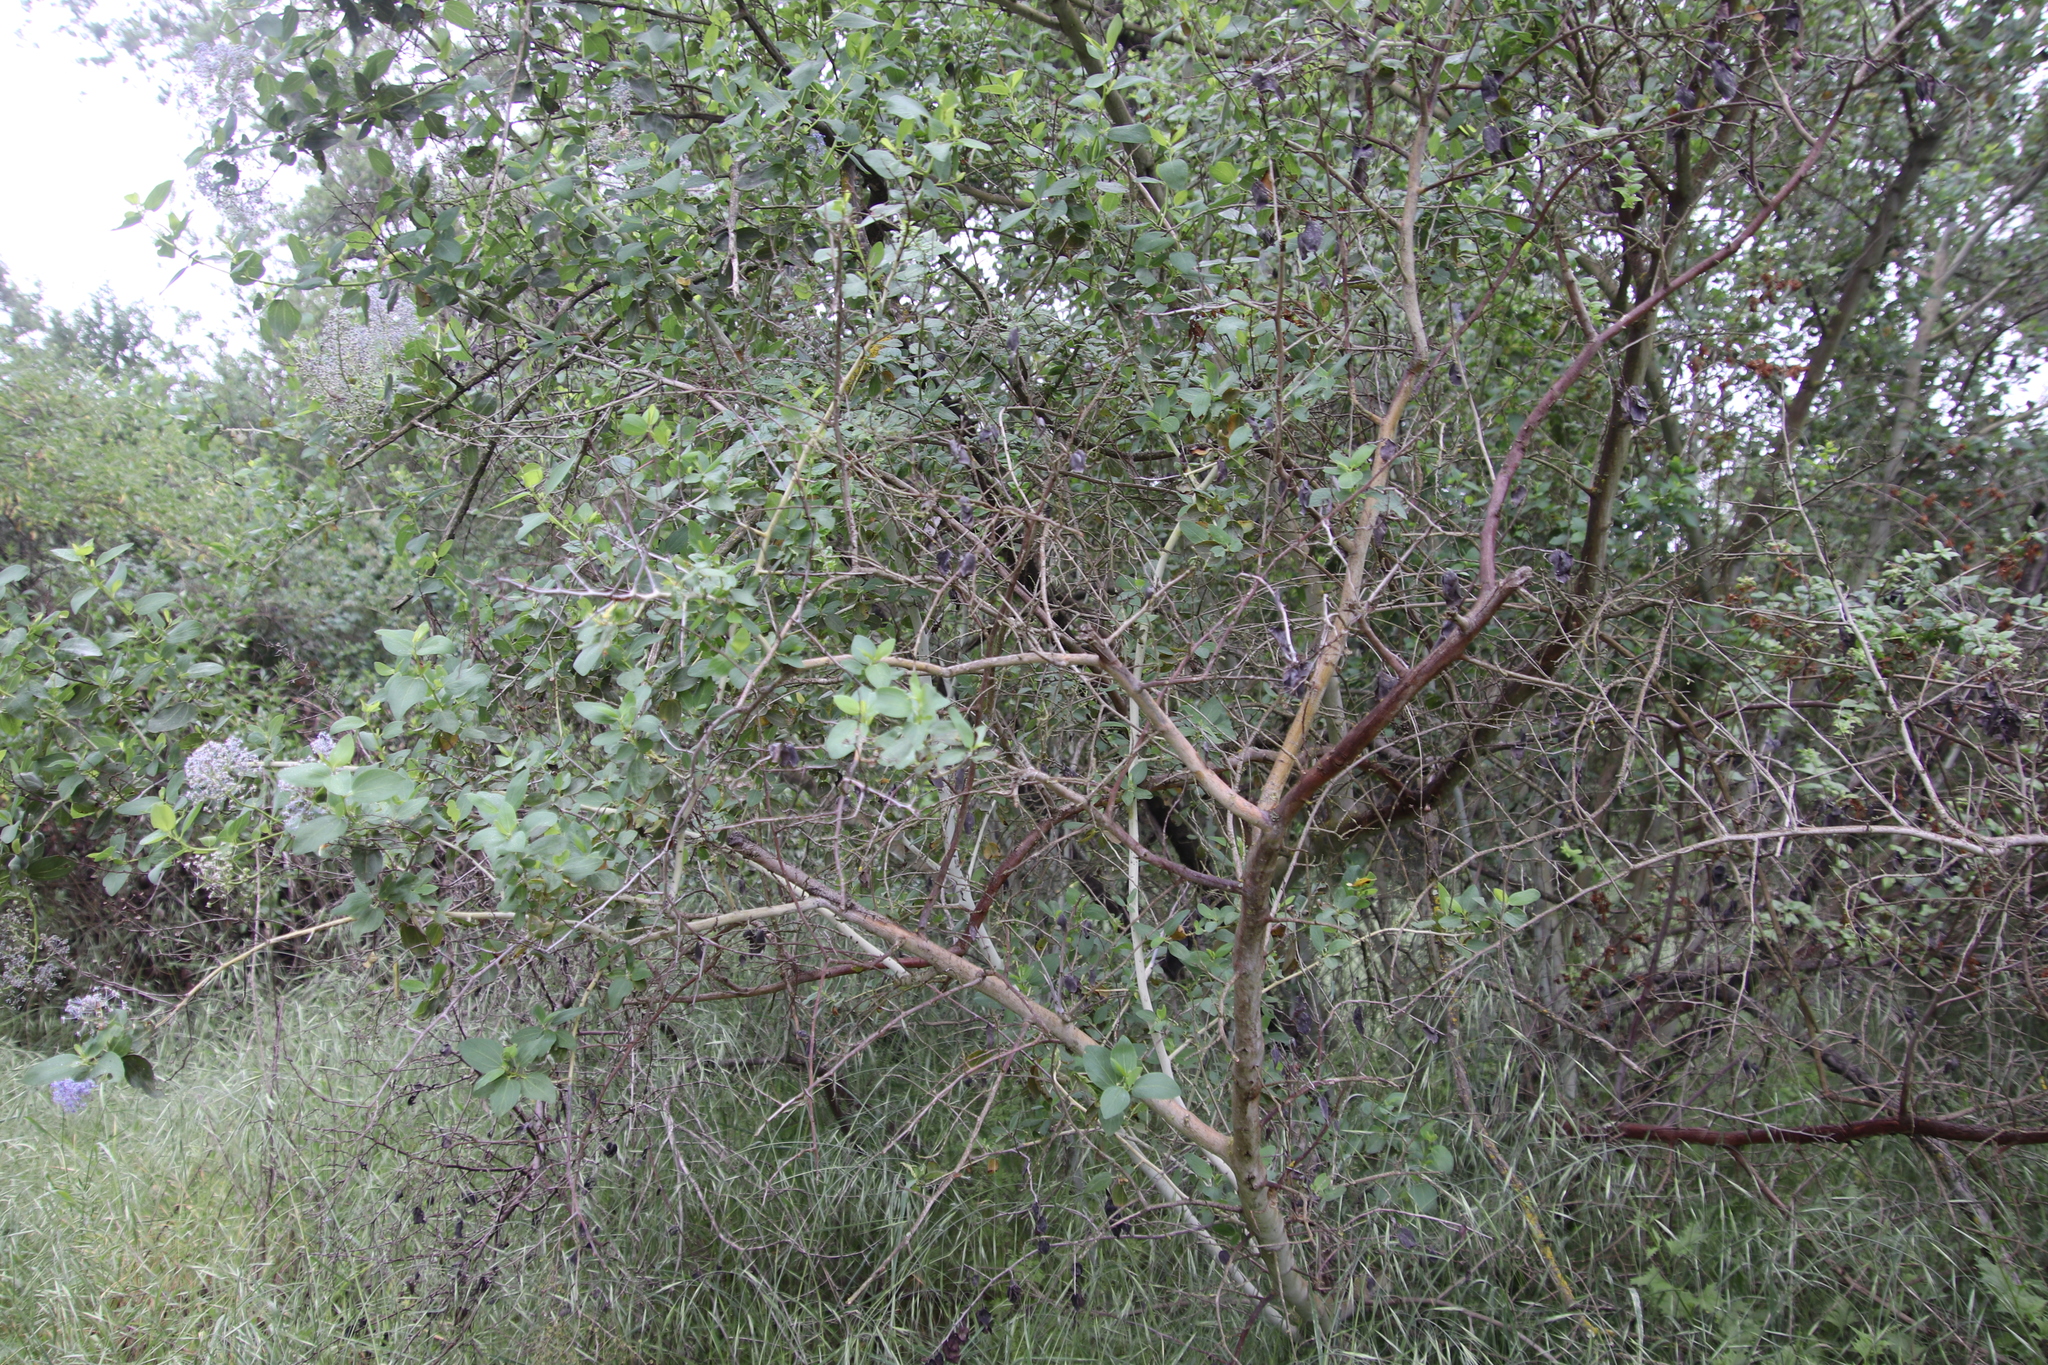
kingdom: Plantae
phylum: Tracheophyta
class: Magnoliopsida
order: Rosales
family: Rhamnaceae
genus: Ceanothus
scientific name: Ceanothus leucodermis
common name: Chaparral whitethorn
